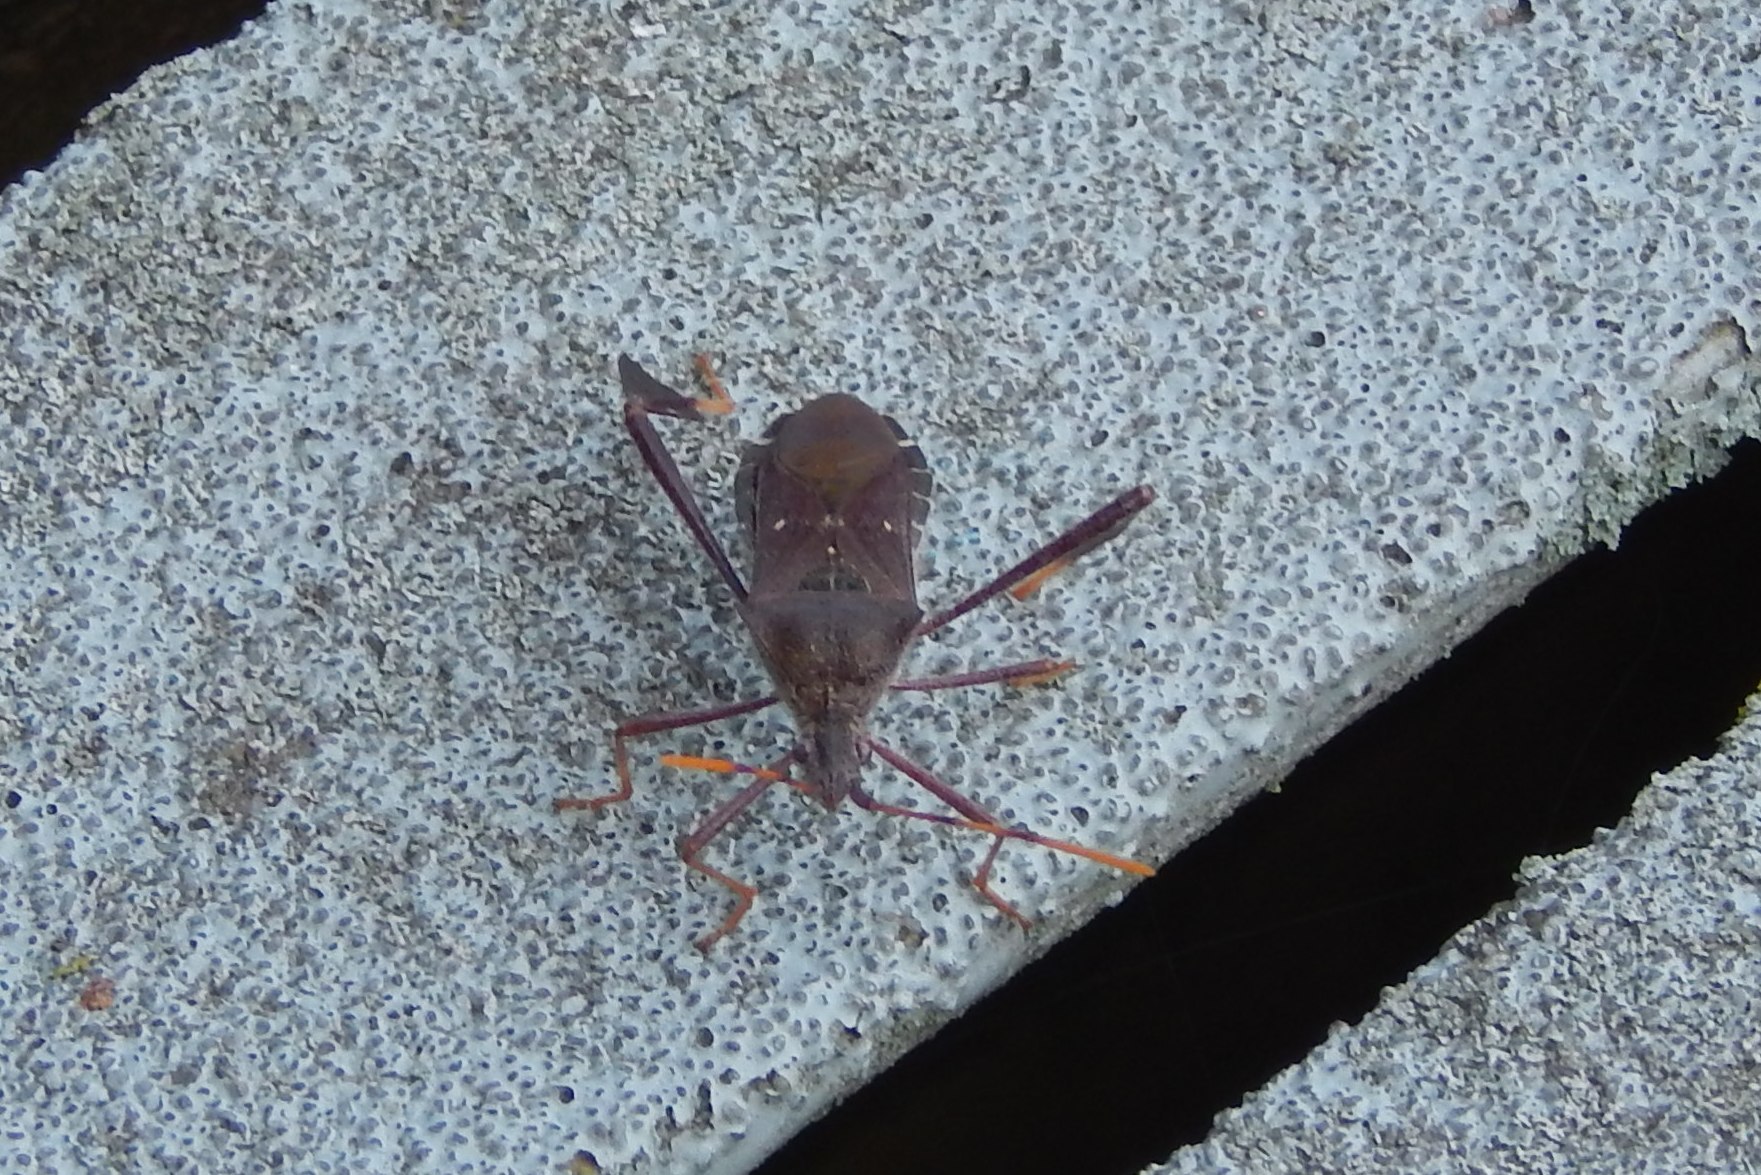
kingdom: Animalia
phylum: Arthropoda
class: Insecta
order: Hemiptera
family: Coreidae
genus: Leptoglossus
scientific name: Leptoglossus oppositus
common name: Northern leaf-footed bug
